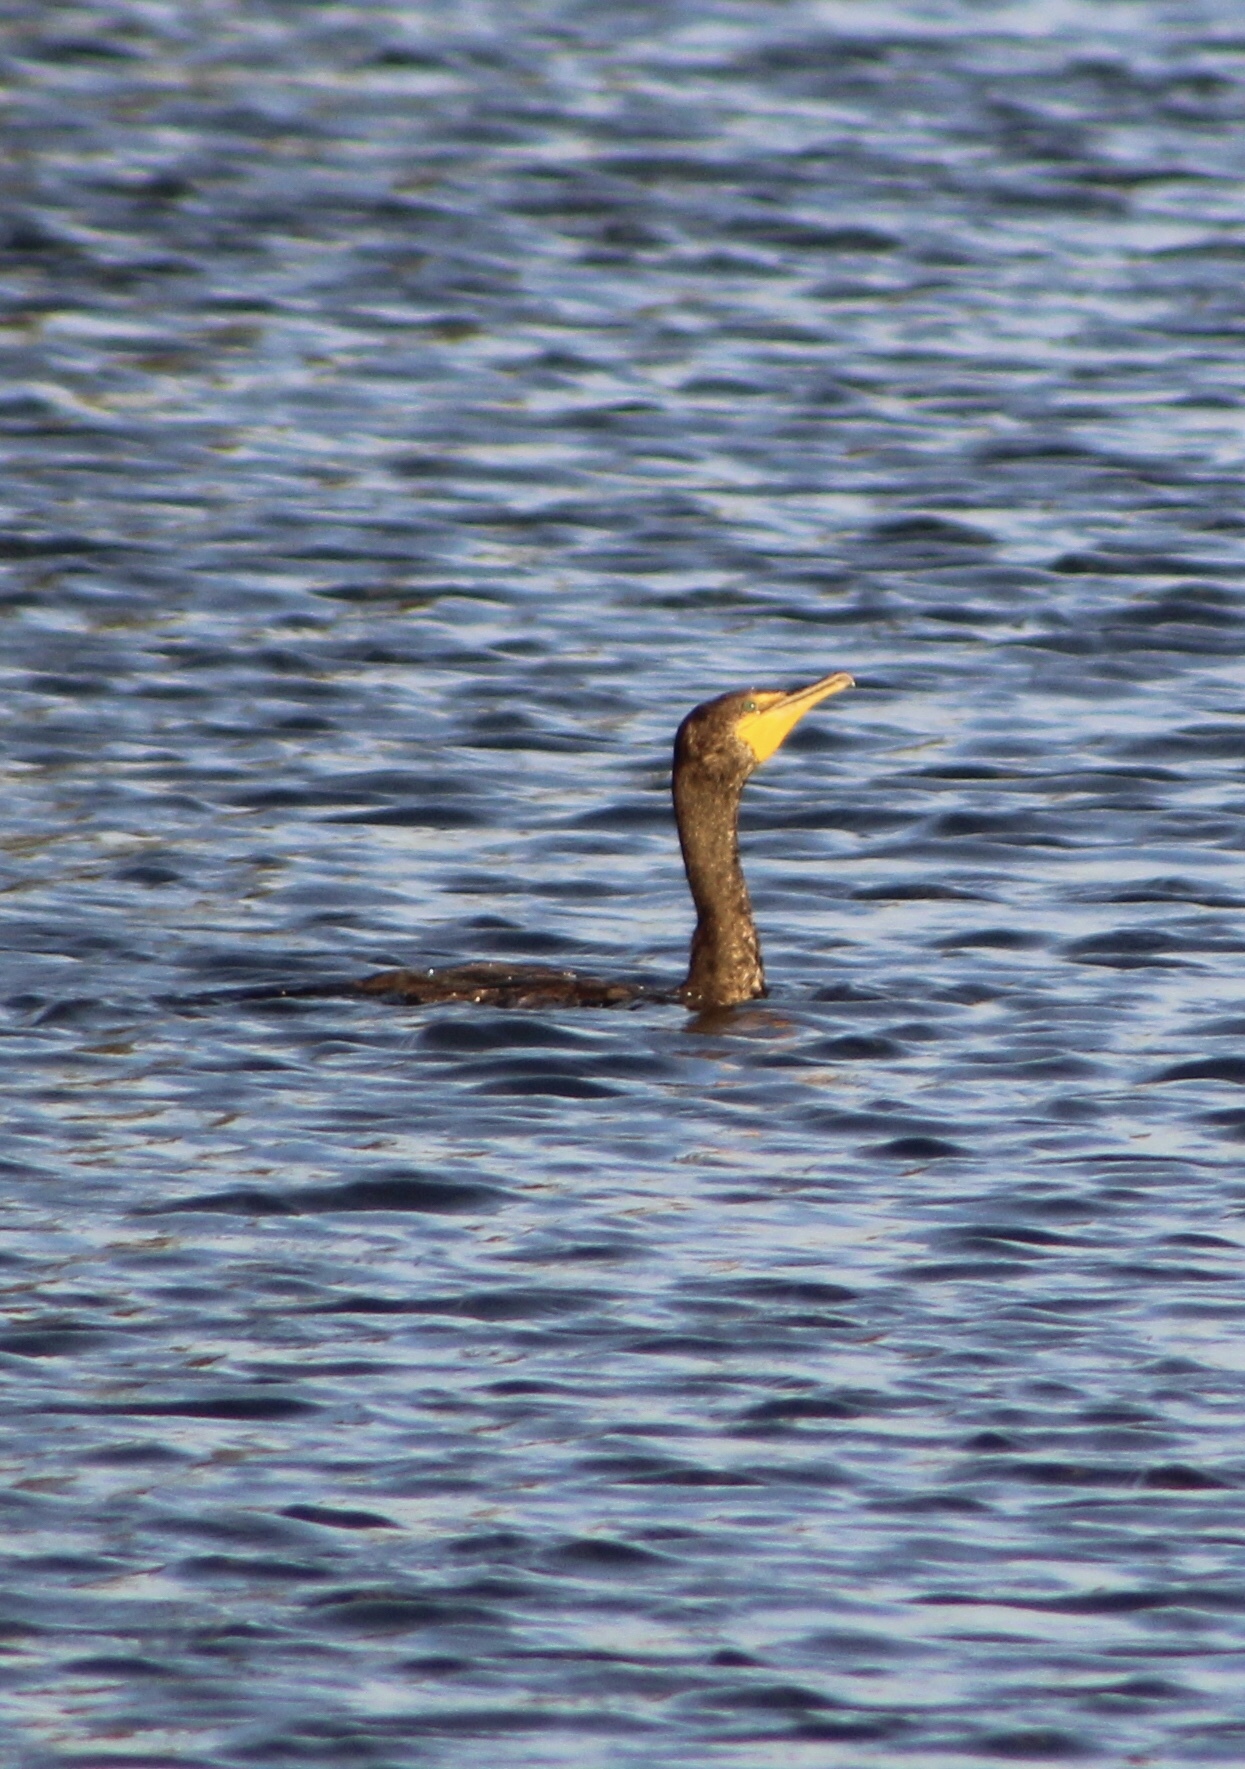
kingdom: Animalia
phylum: Chordata
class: Aves
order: Suliformes
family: Phalacrocoracidae
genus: Phalacrocorax
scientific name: Phalacrocorax auritus
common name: Double-crested cormorant
